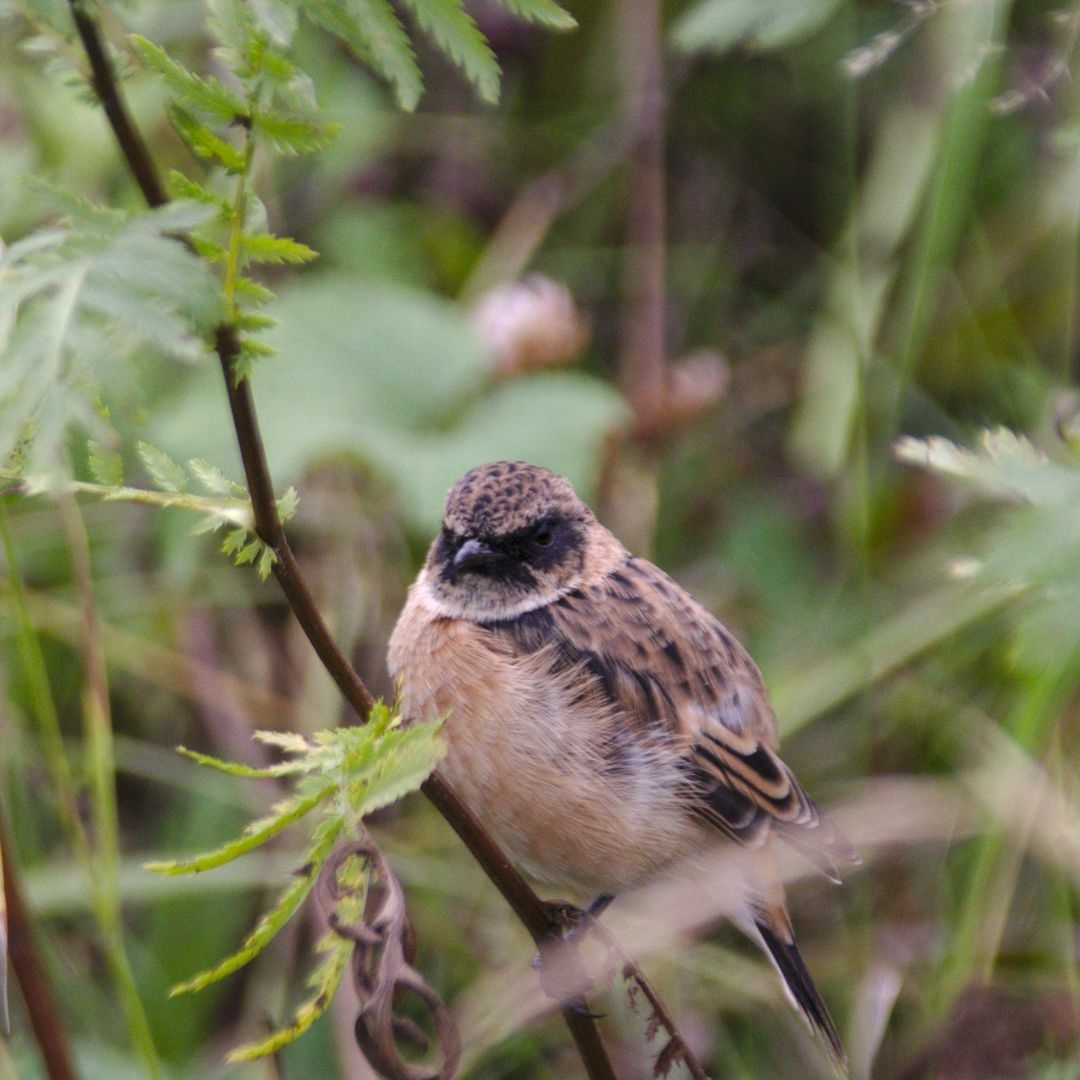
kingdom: Animalia
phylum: Chordata
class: Aves
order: Passeriformes
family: Muscicapidae
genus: Saxicola
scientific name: Saxicola maurus
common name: Siberian stonechat
